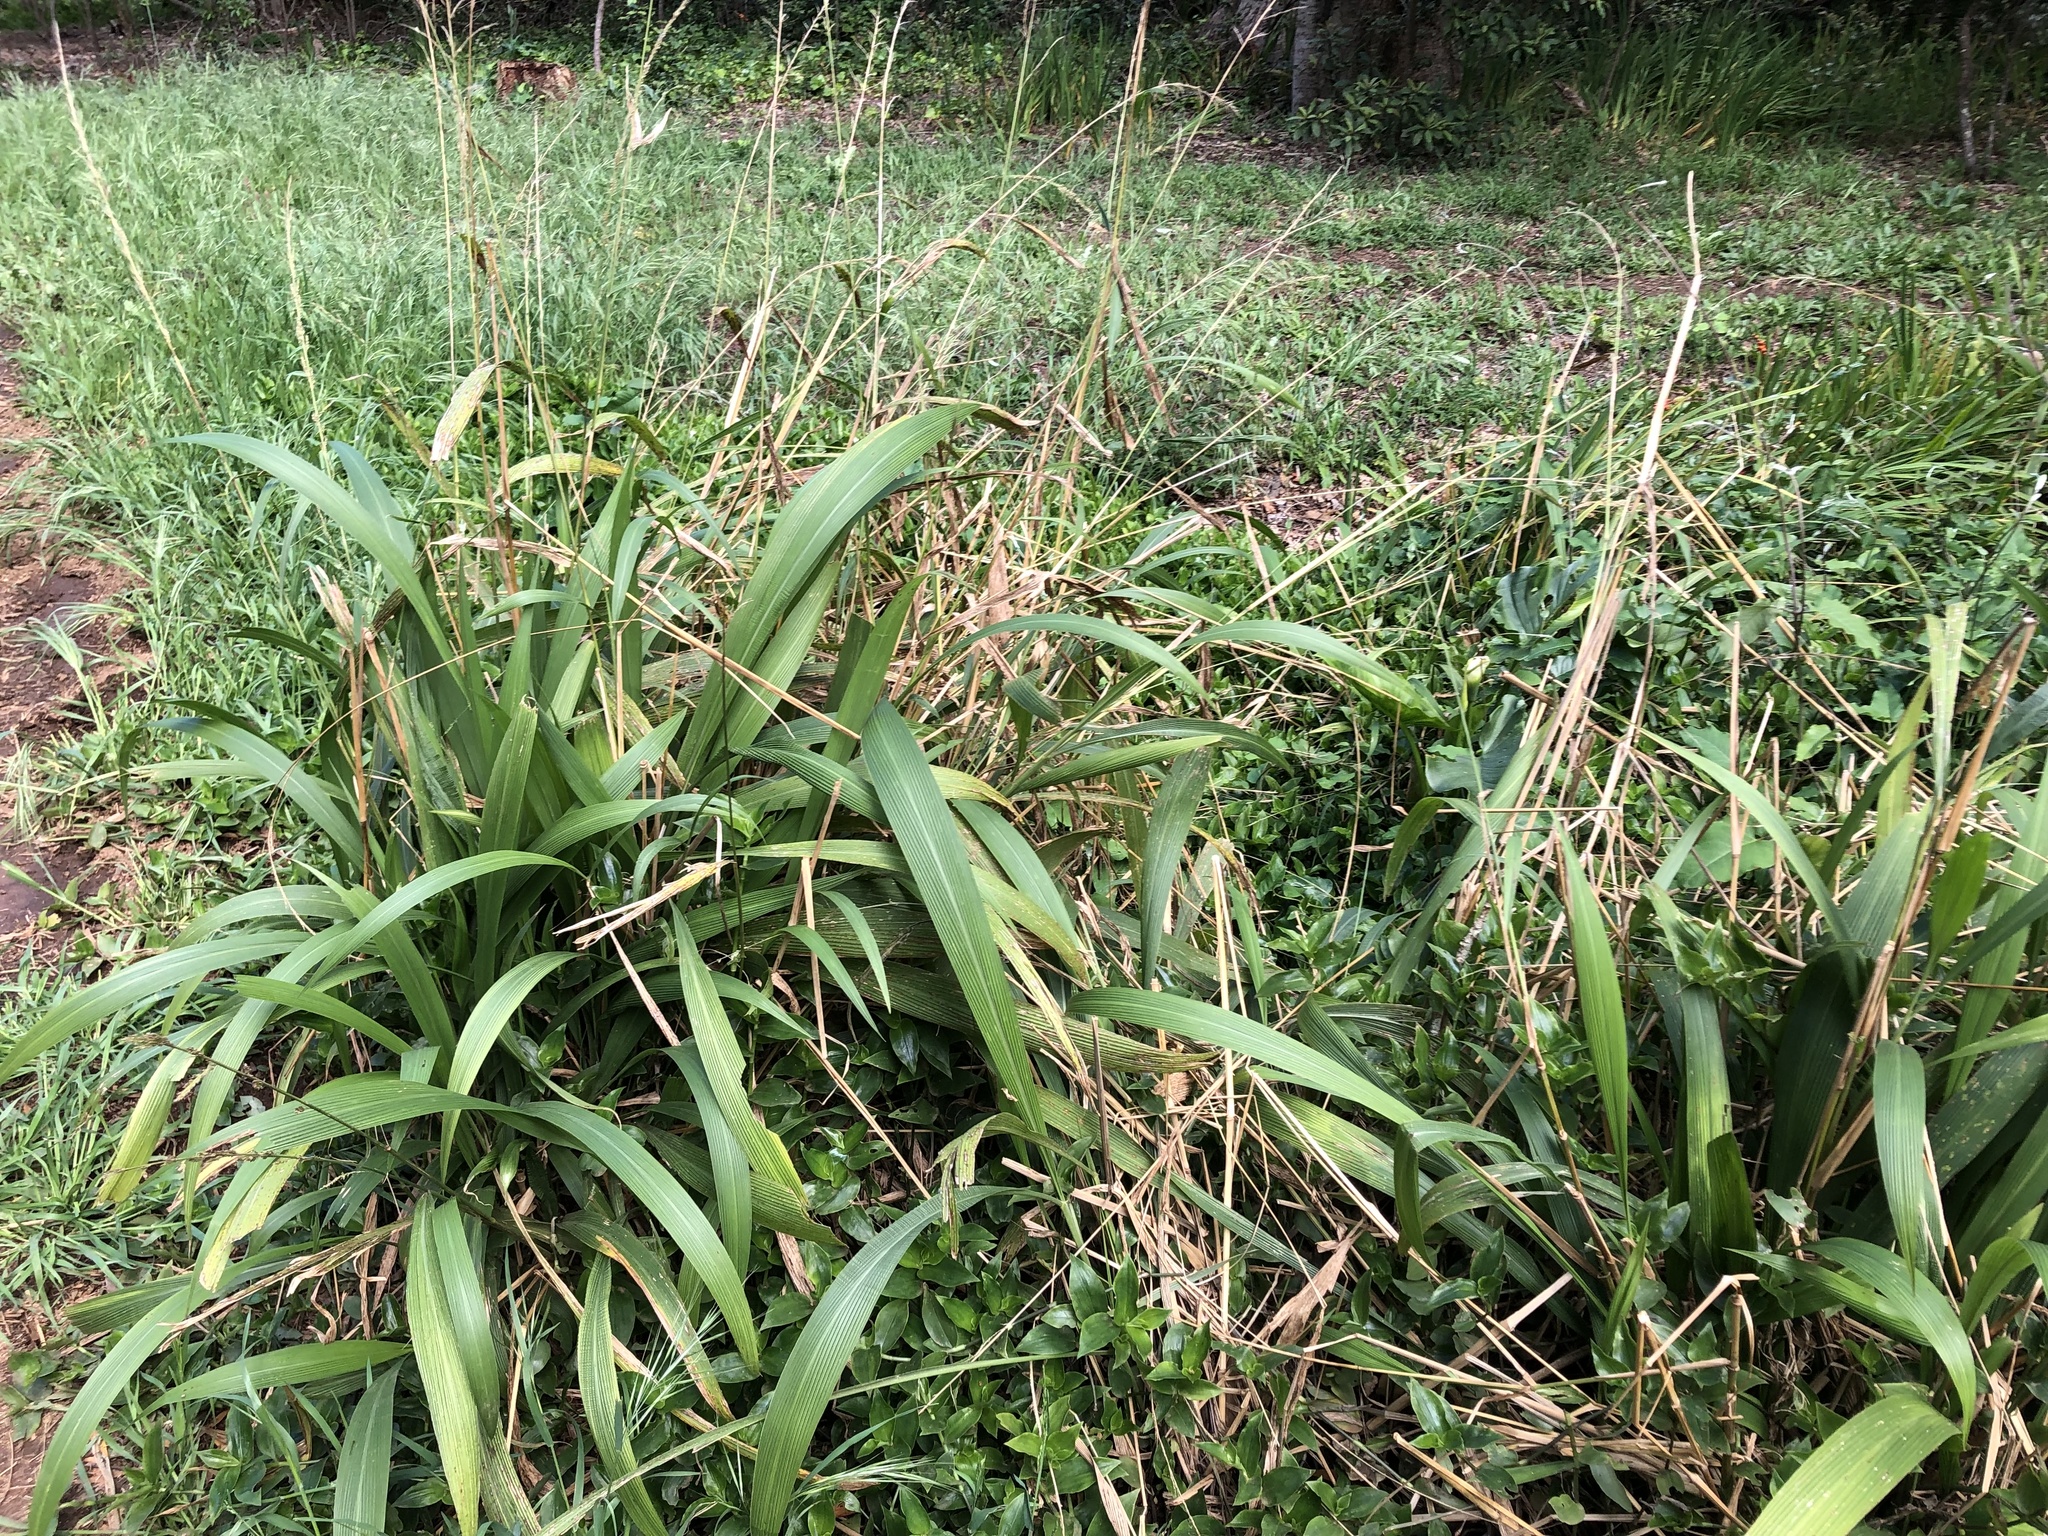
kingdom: Plantae
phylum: Tracheophyta
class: Liliopsida
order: Poales
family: Poaceae
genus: Setaria
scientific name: Setaria megaphylla
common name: Bigleaf bristlegrass
